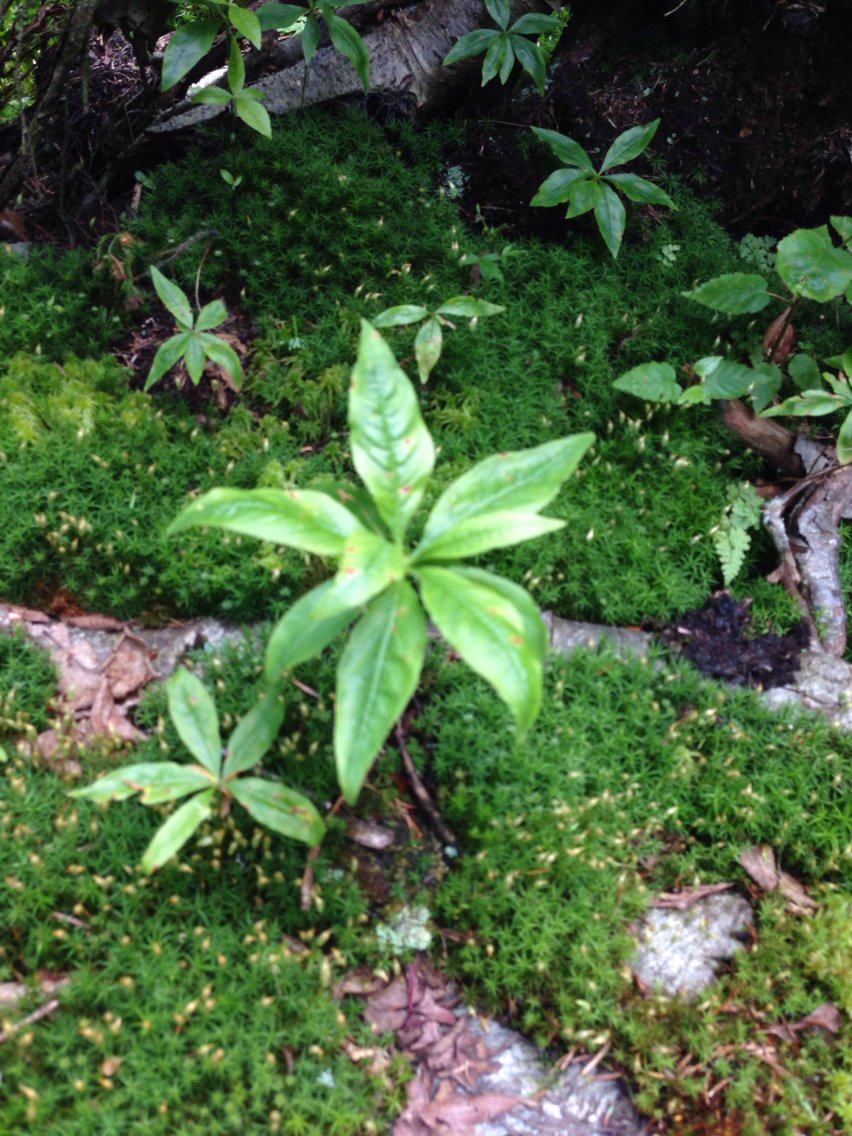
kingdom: Plantae
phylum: Tracheophyta
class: Magnoliopsida
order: Ericales
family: Primulaceae
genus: Lysimachia
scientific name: Lysimachia borealis
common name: American starflower
